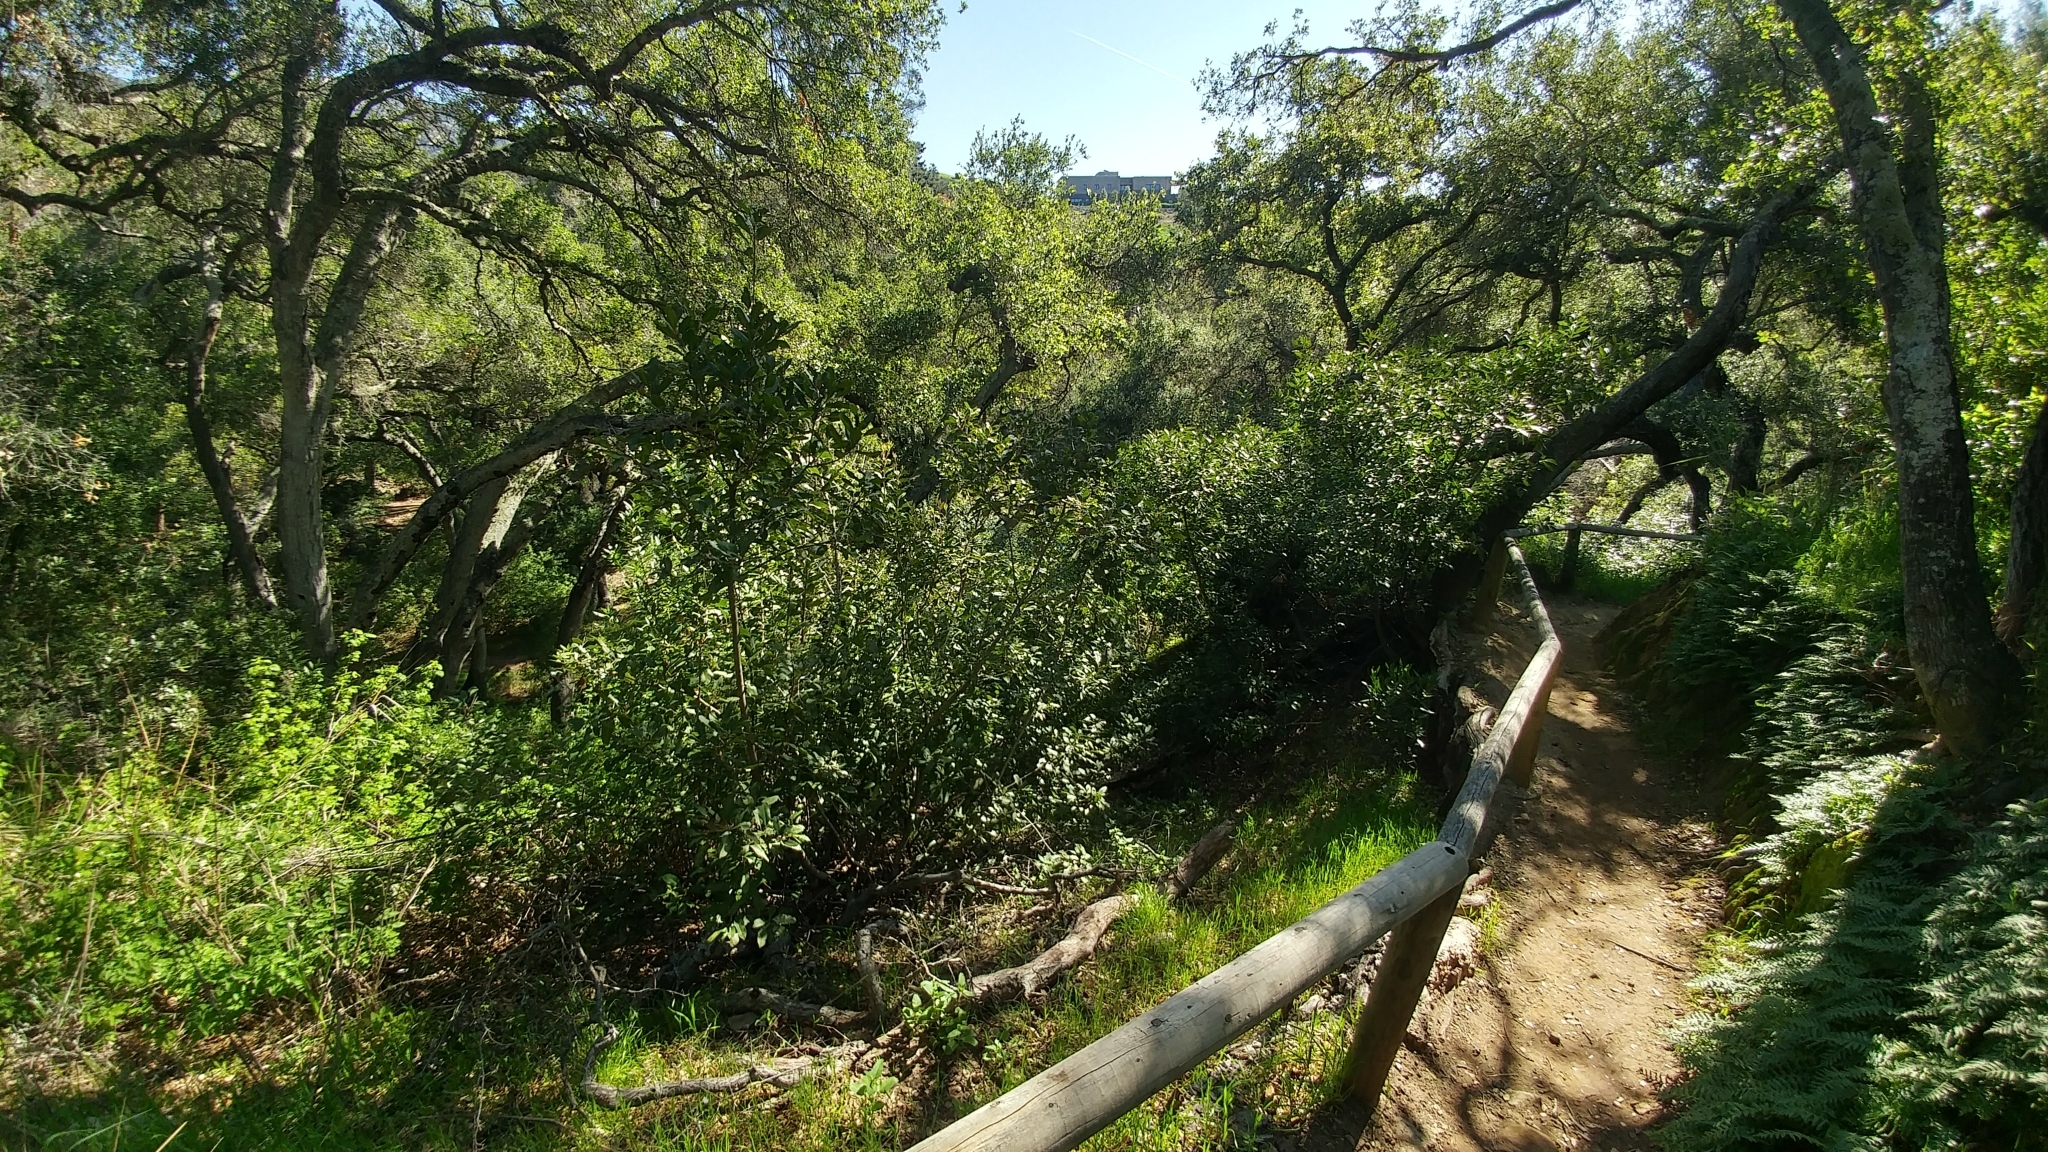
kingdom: Plantae
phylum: Tracheophyta
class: Magnoliopsida
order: Fagales
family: Fagaceae
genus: Quercus
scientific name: Quercus agrifolia
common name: California live oak
